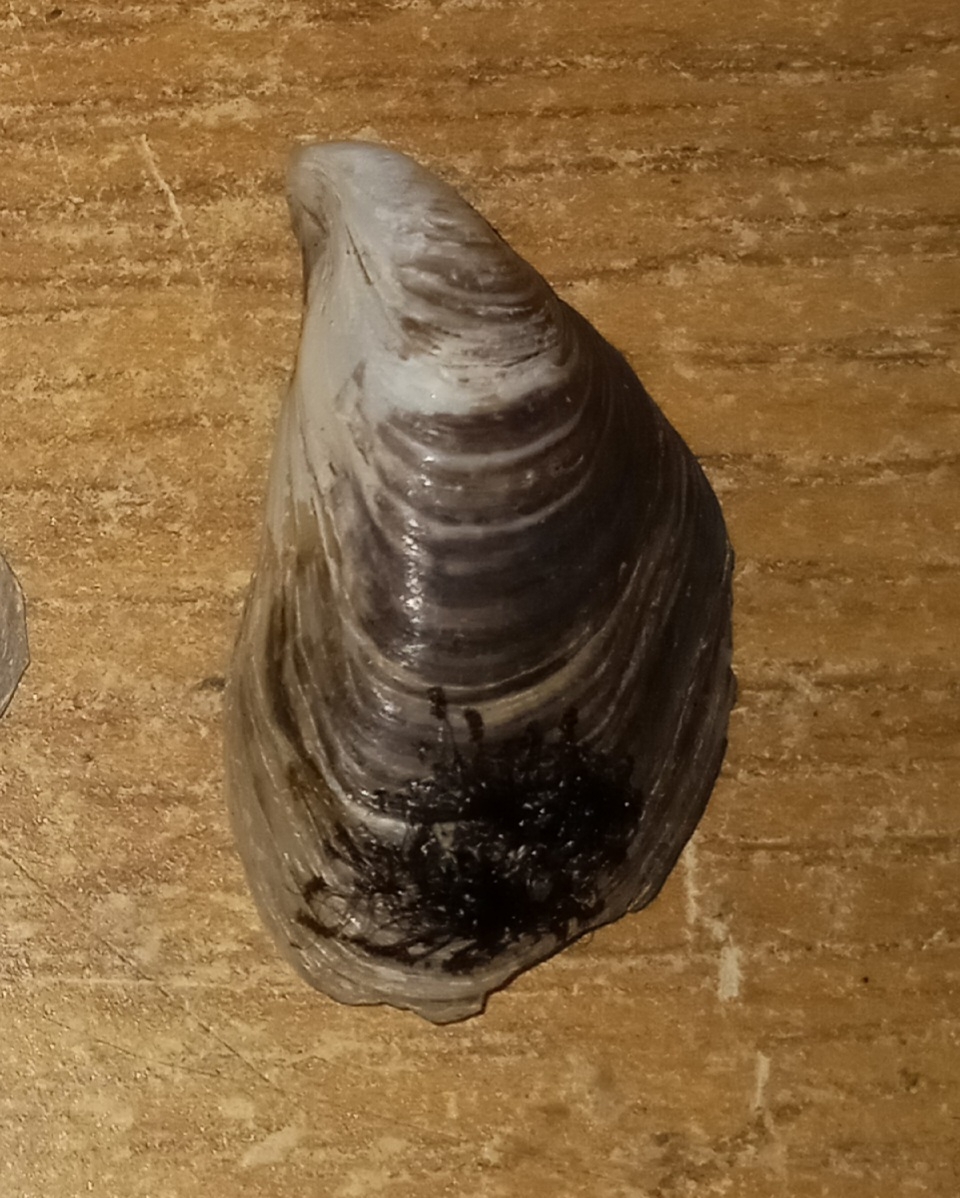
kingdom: Animalia
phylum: Mollusca
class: Bivalvia
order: Myida
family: Dreissenidae
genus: Dreissena
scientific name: Dreissena bugensis
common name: Quagga mussel
